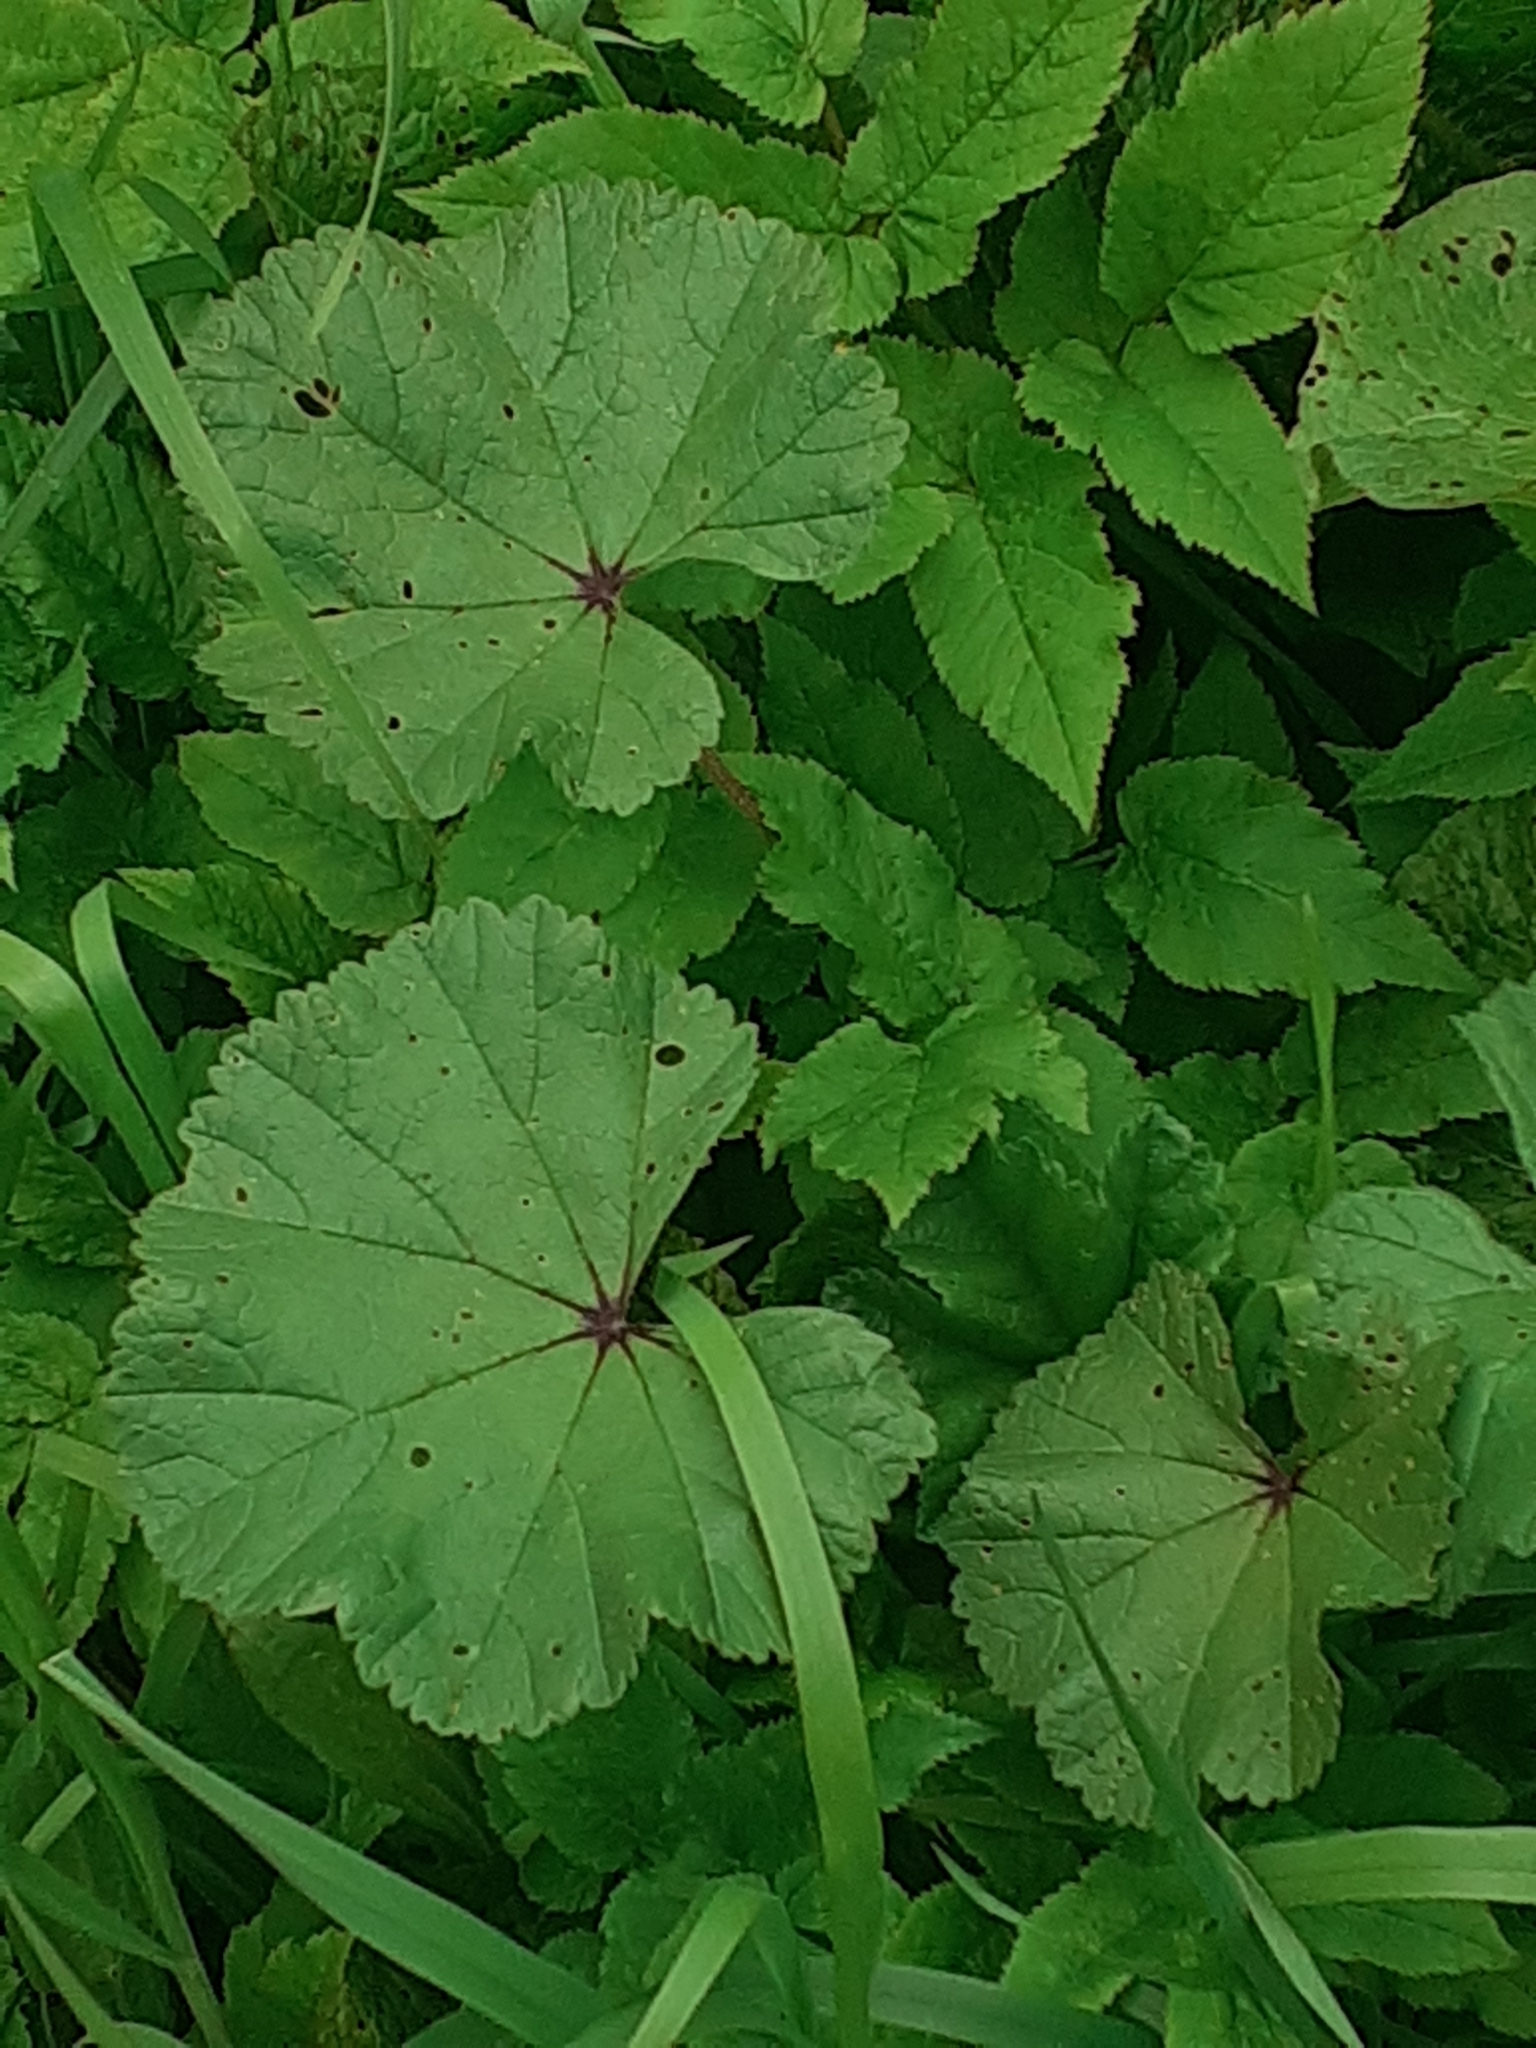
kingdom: Plantae
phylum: Tracheophyta
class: Magnoliopsida
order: Asterales
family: Asteraceae
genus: Tussilago
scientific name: Tussilago farfara
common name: Coltsfoot
